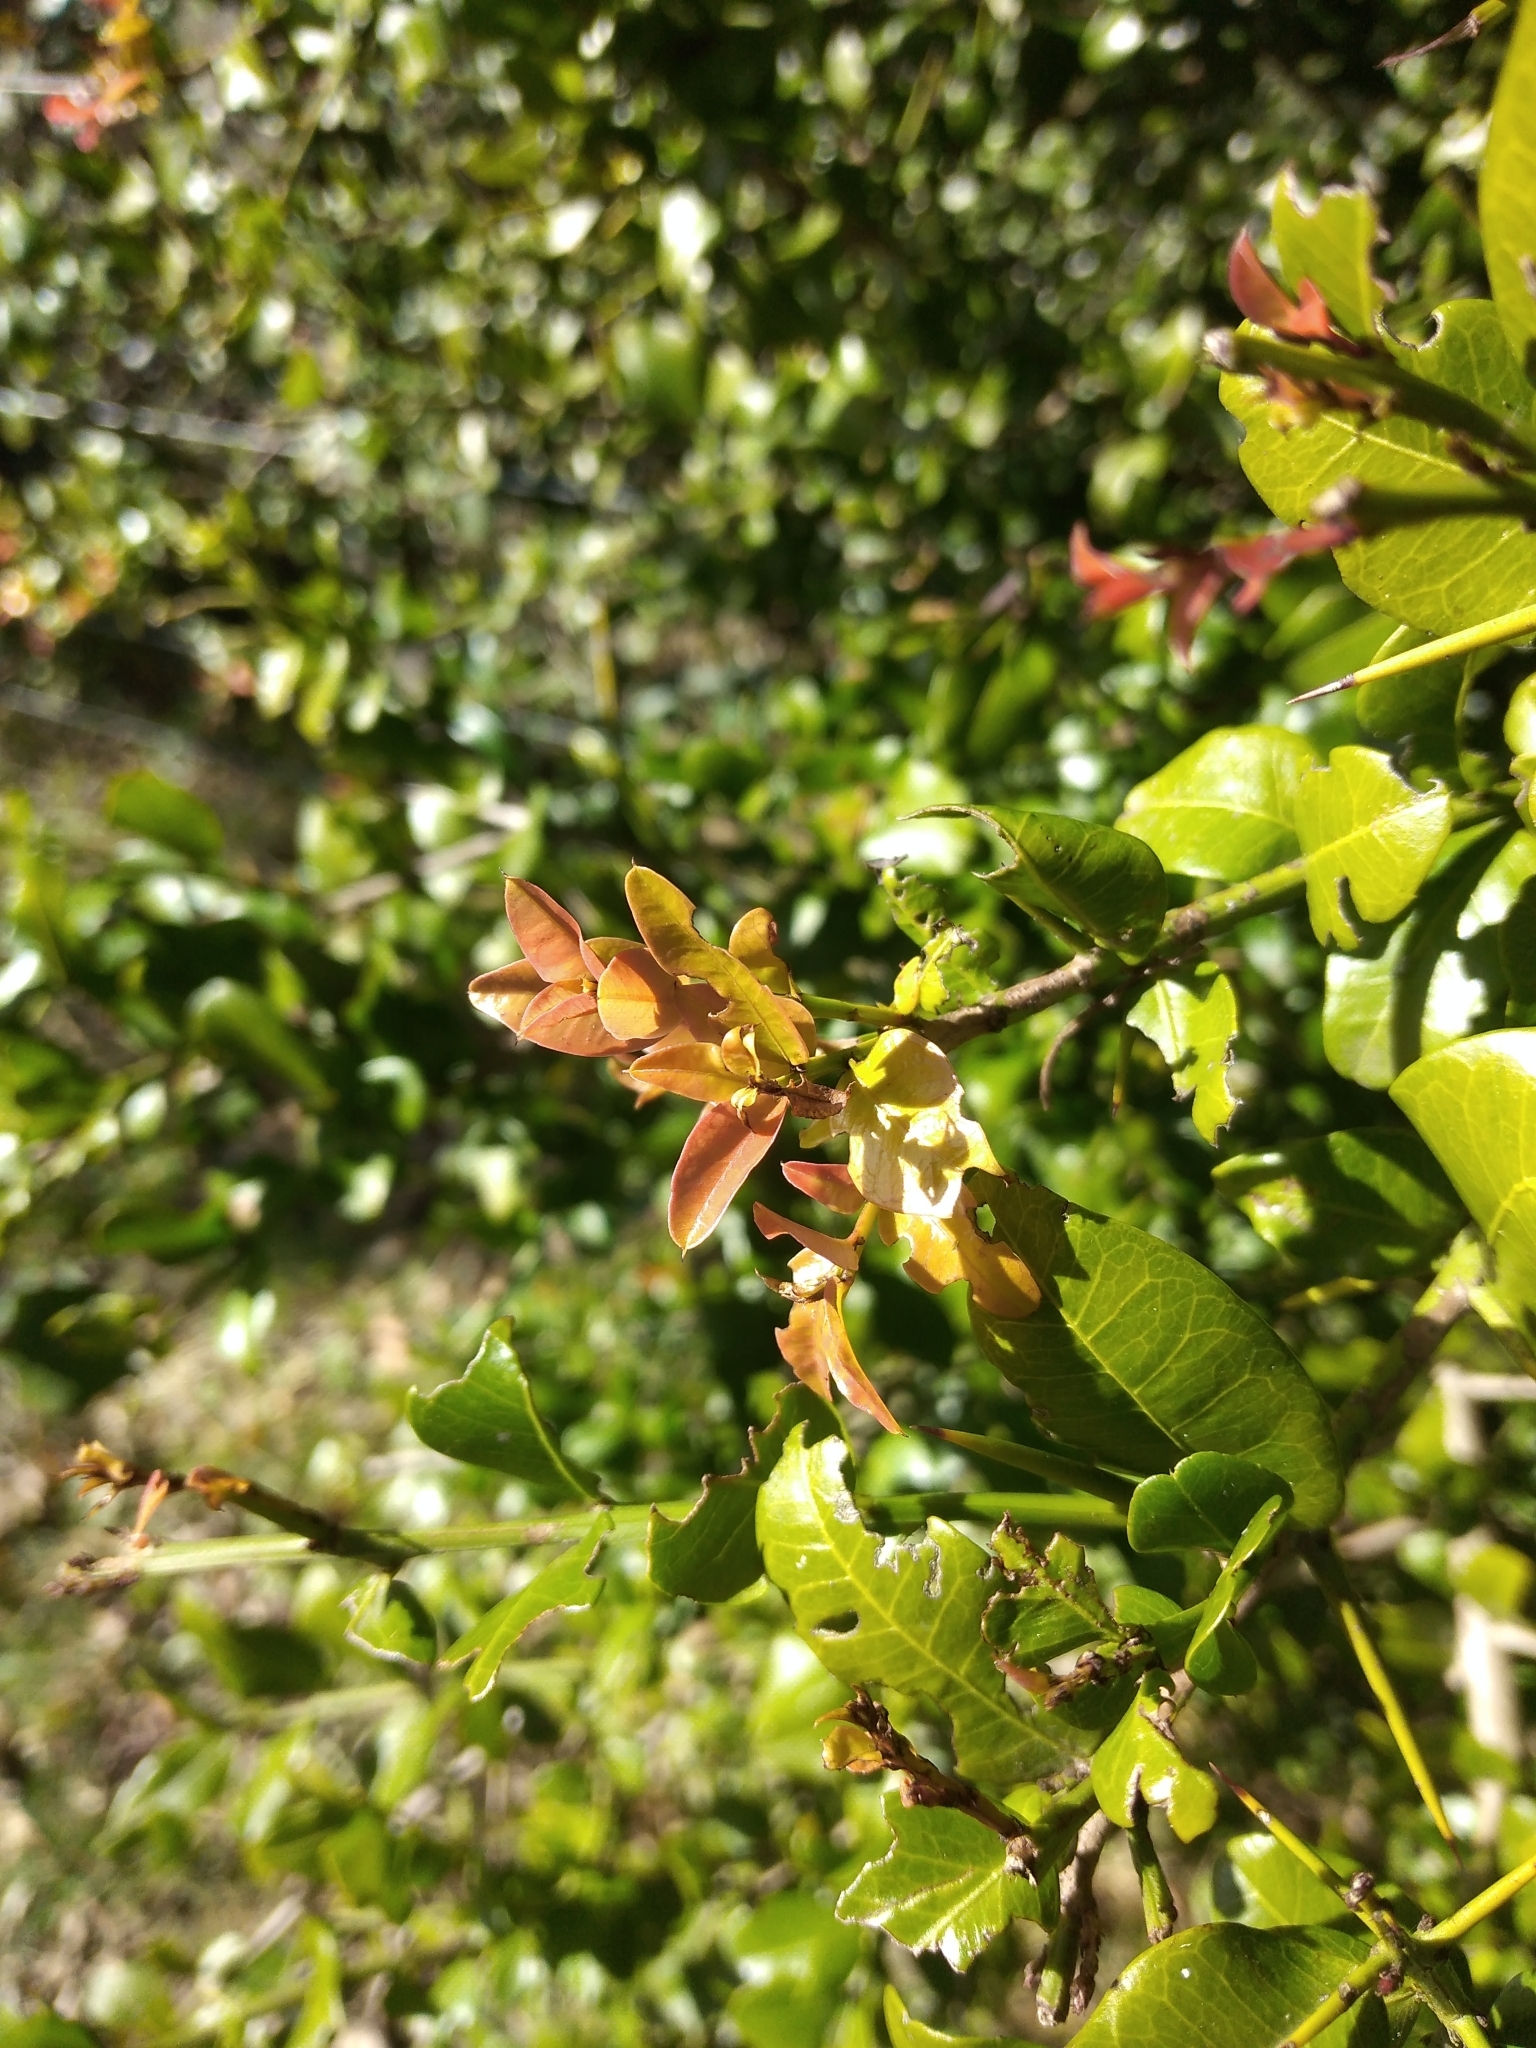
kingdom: Plantae
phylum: Tracheophyta
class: Magnoliopsida
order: Rosales
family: Rhamnaceae
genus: Scutia
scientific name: Scutia buxifolia
